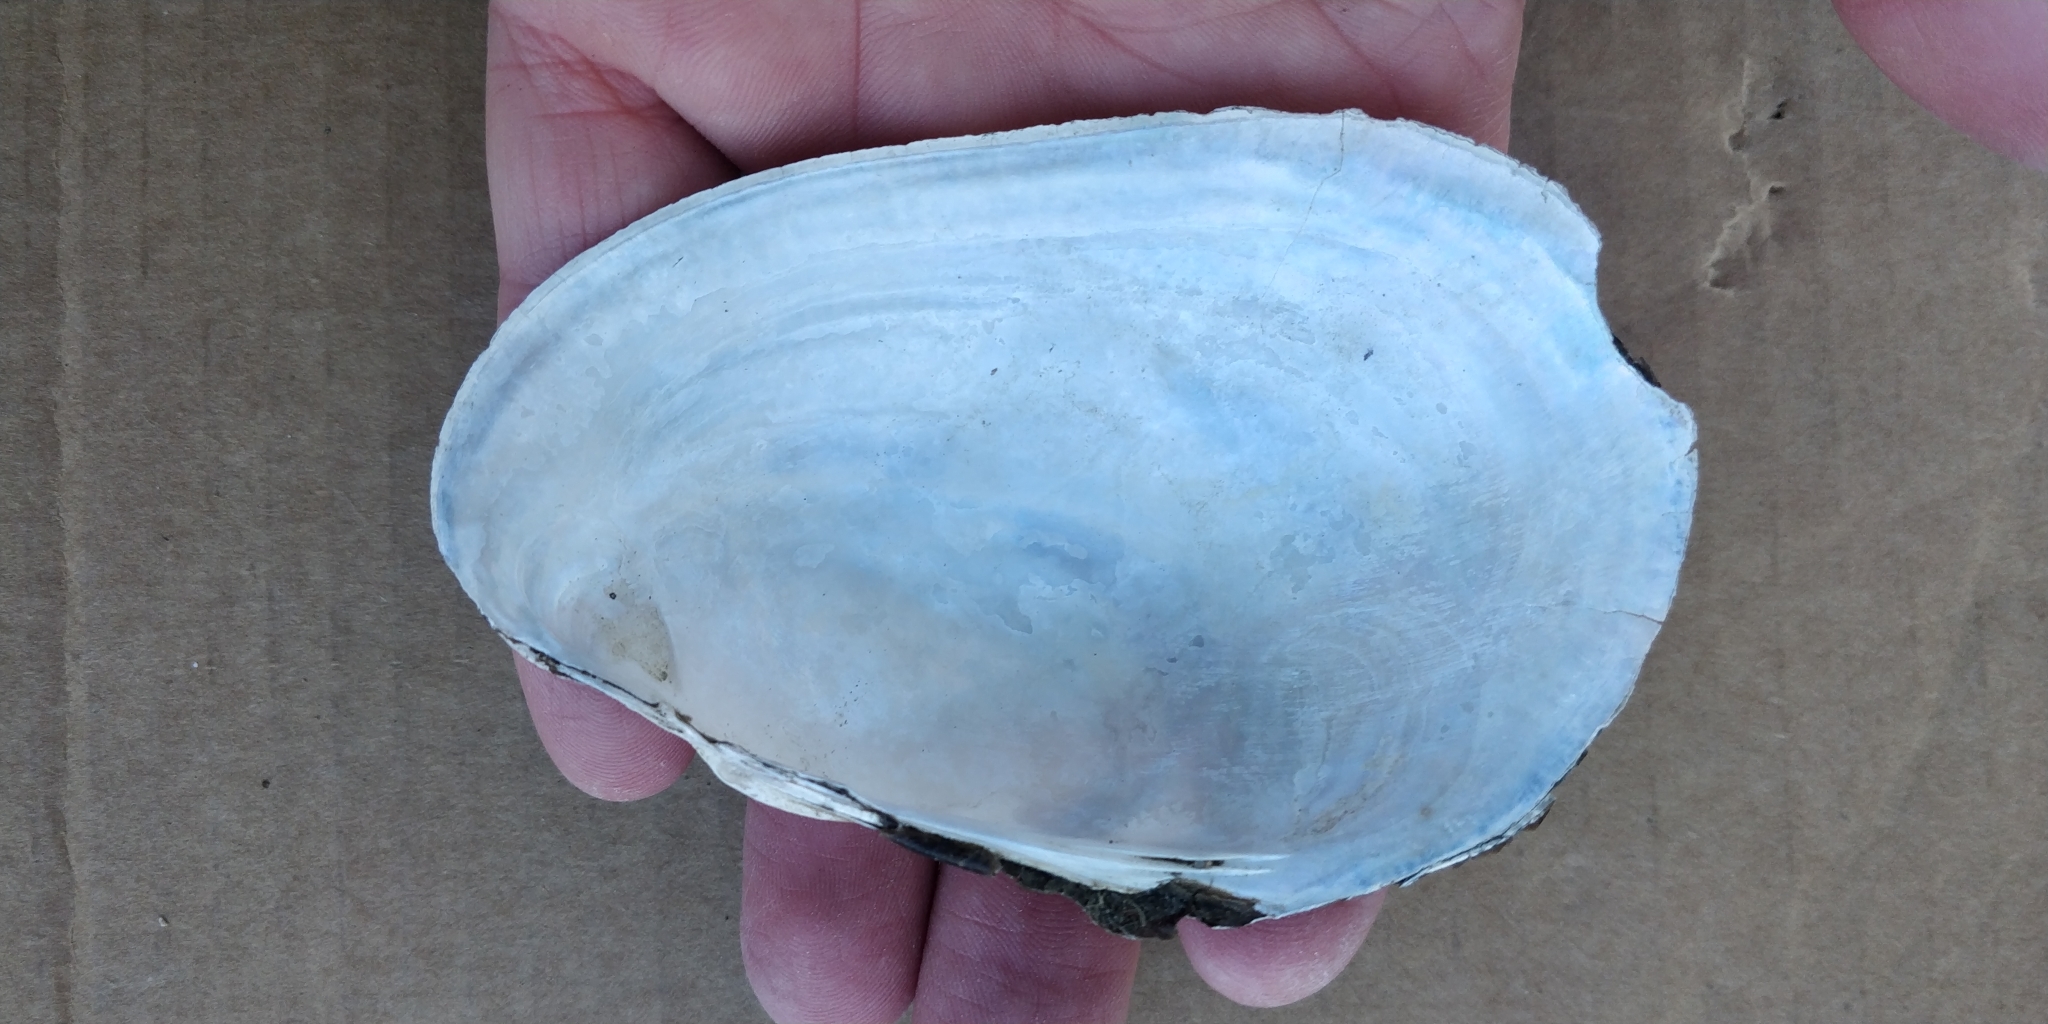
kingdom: Animalia
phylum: Mollusca
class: Bivalvia
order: Unionida
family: Unionidae
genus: Potamilus
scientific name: Potamilus fragilis
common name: Fragile papershell
